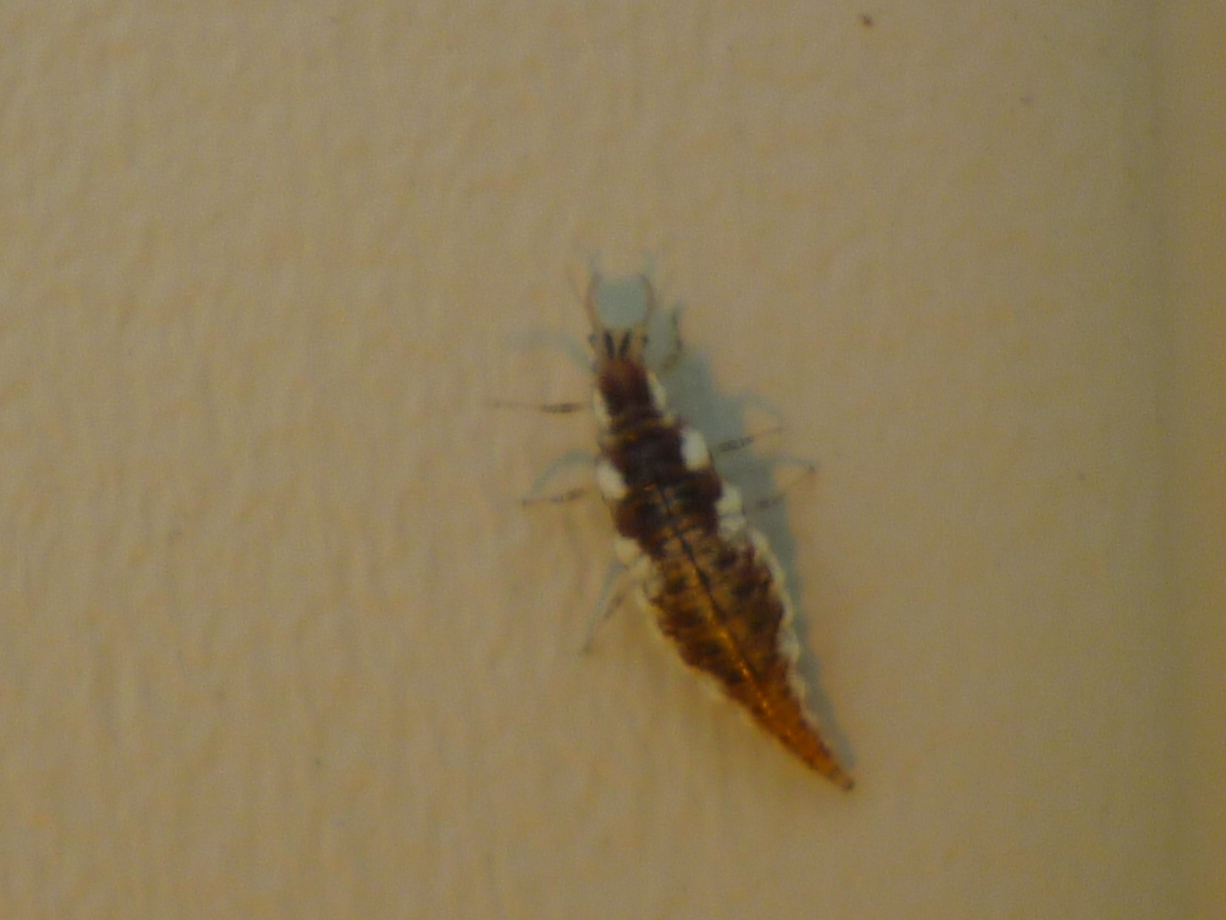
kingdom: Animalia
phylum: Arthropoda
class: Insecta
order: Neuroptera
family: Chrysopidae
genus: Chrysoperla
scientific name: Chrysoperla rufilabris
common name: Red-lipped green lacewing
